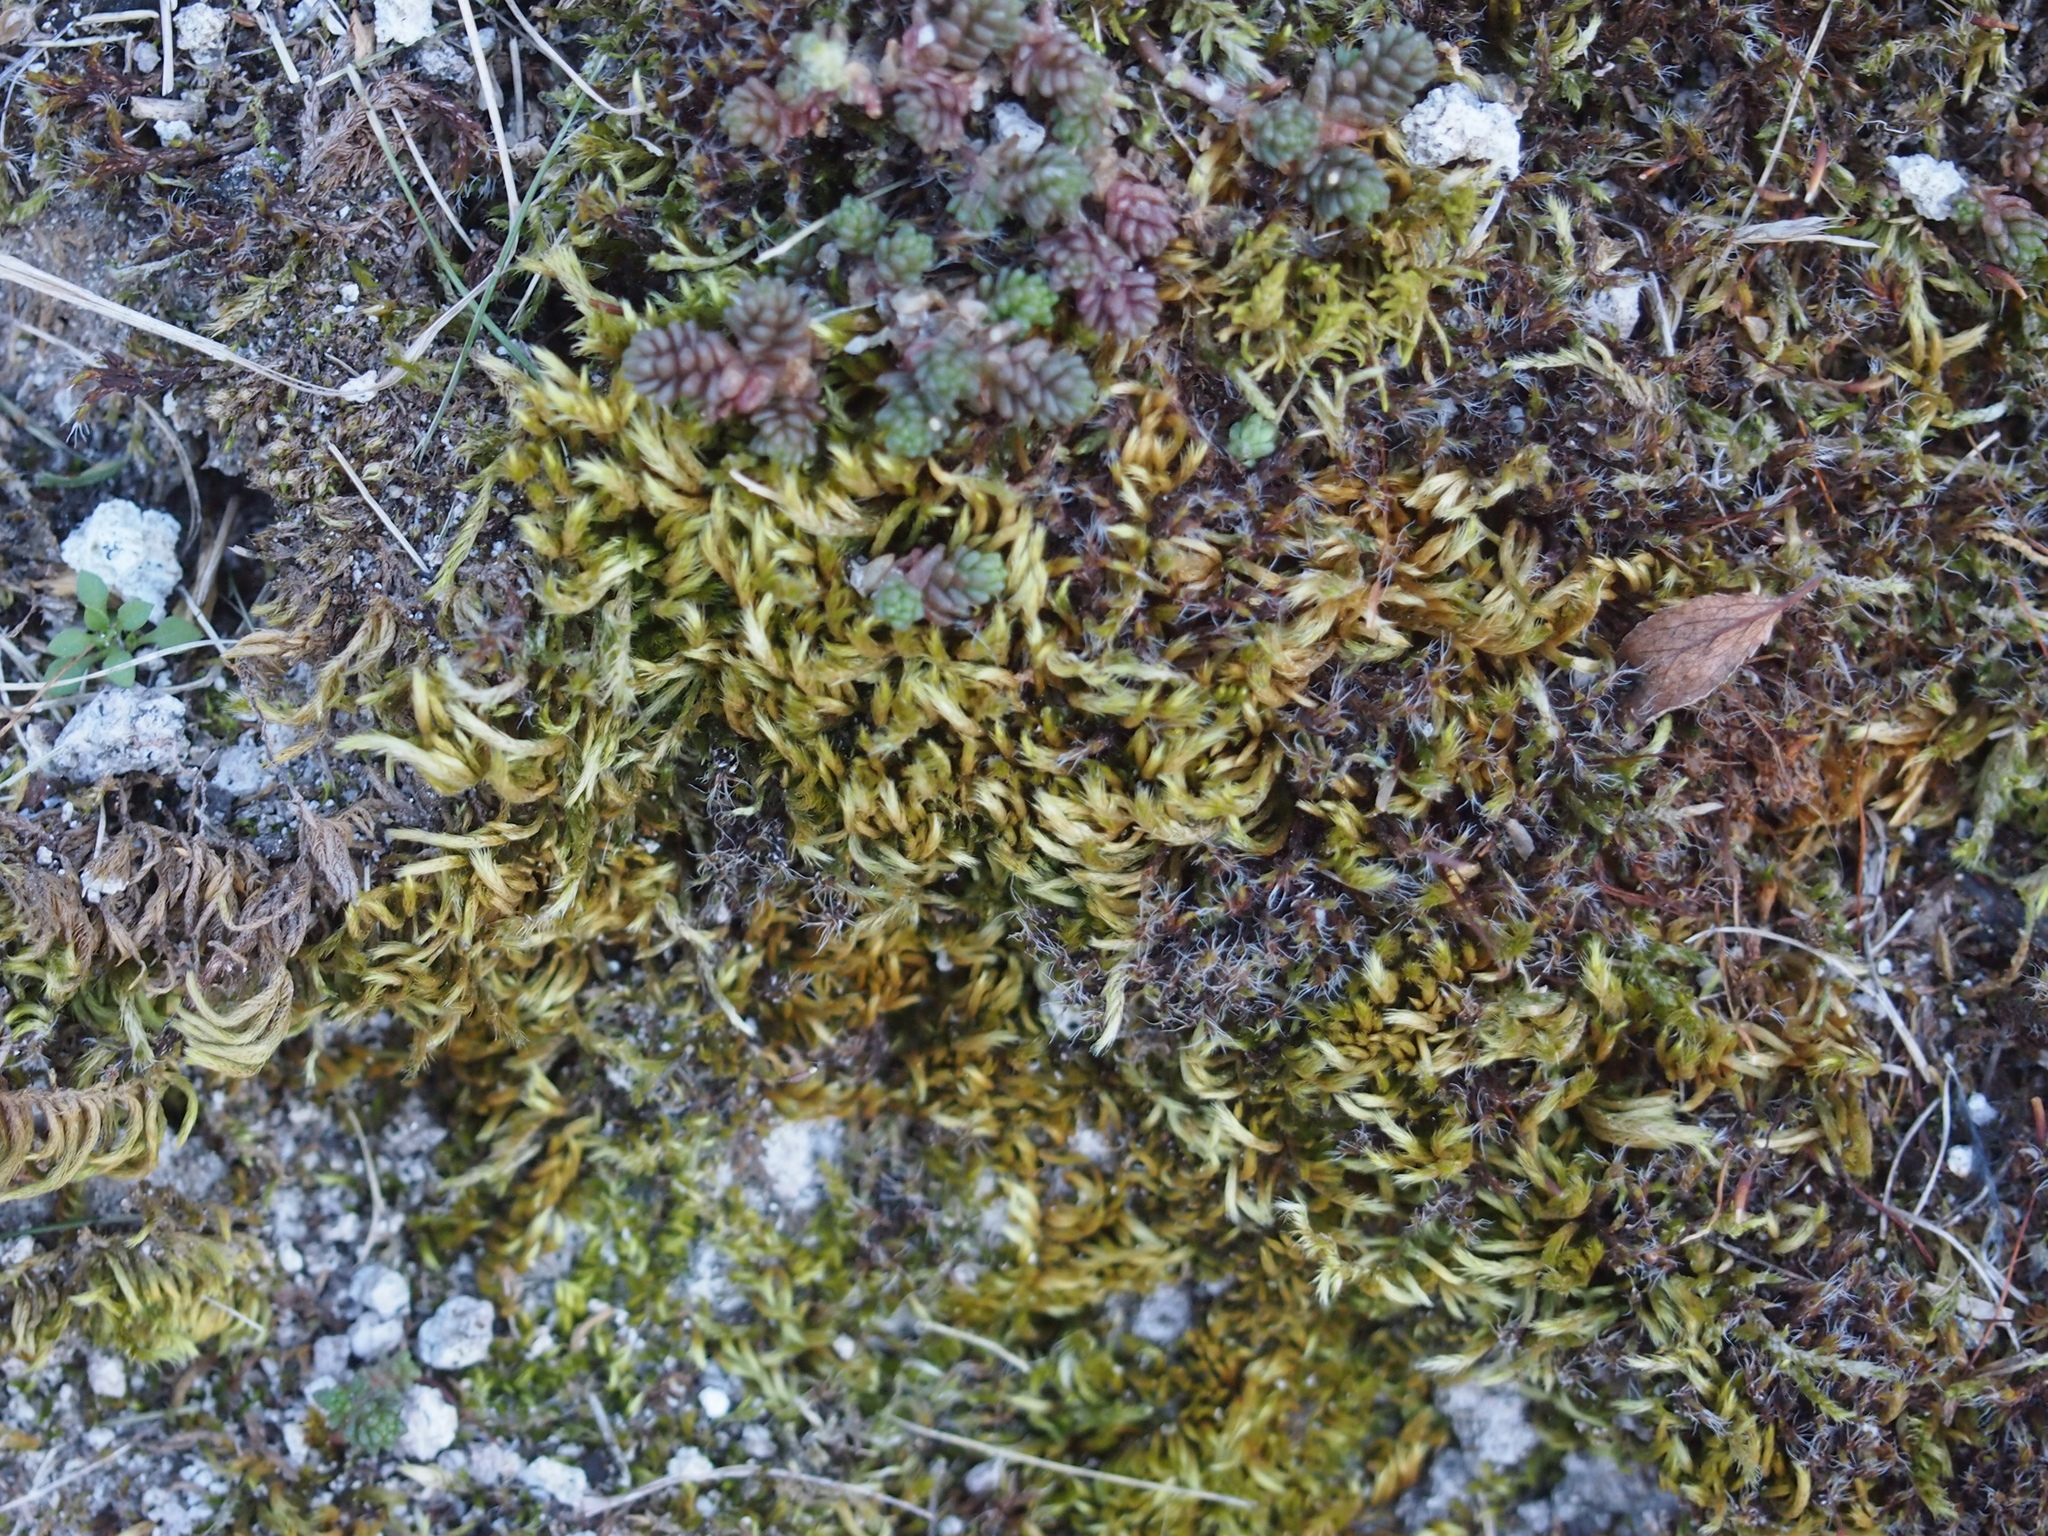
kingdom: Plantae
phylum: Bryophyta
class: Bryopsida
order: Hypnales
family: Brachytheciaceae
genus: Homalothecium
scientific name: Homalothecium sericeum
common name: Silky wall feather-moss
